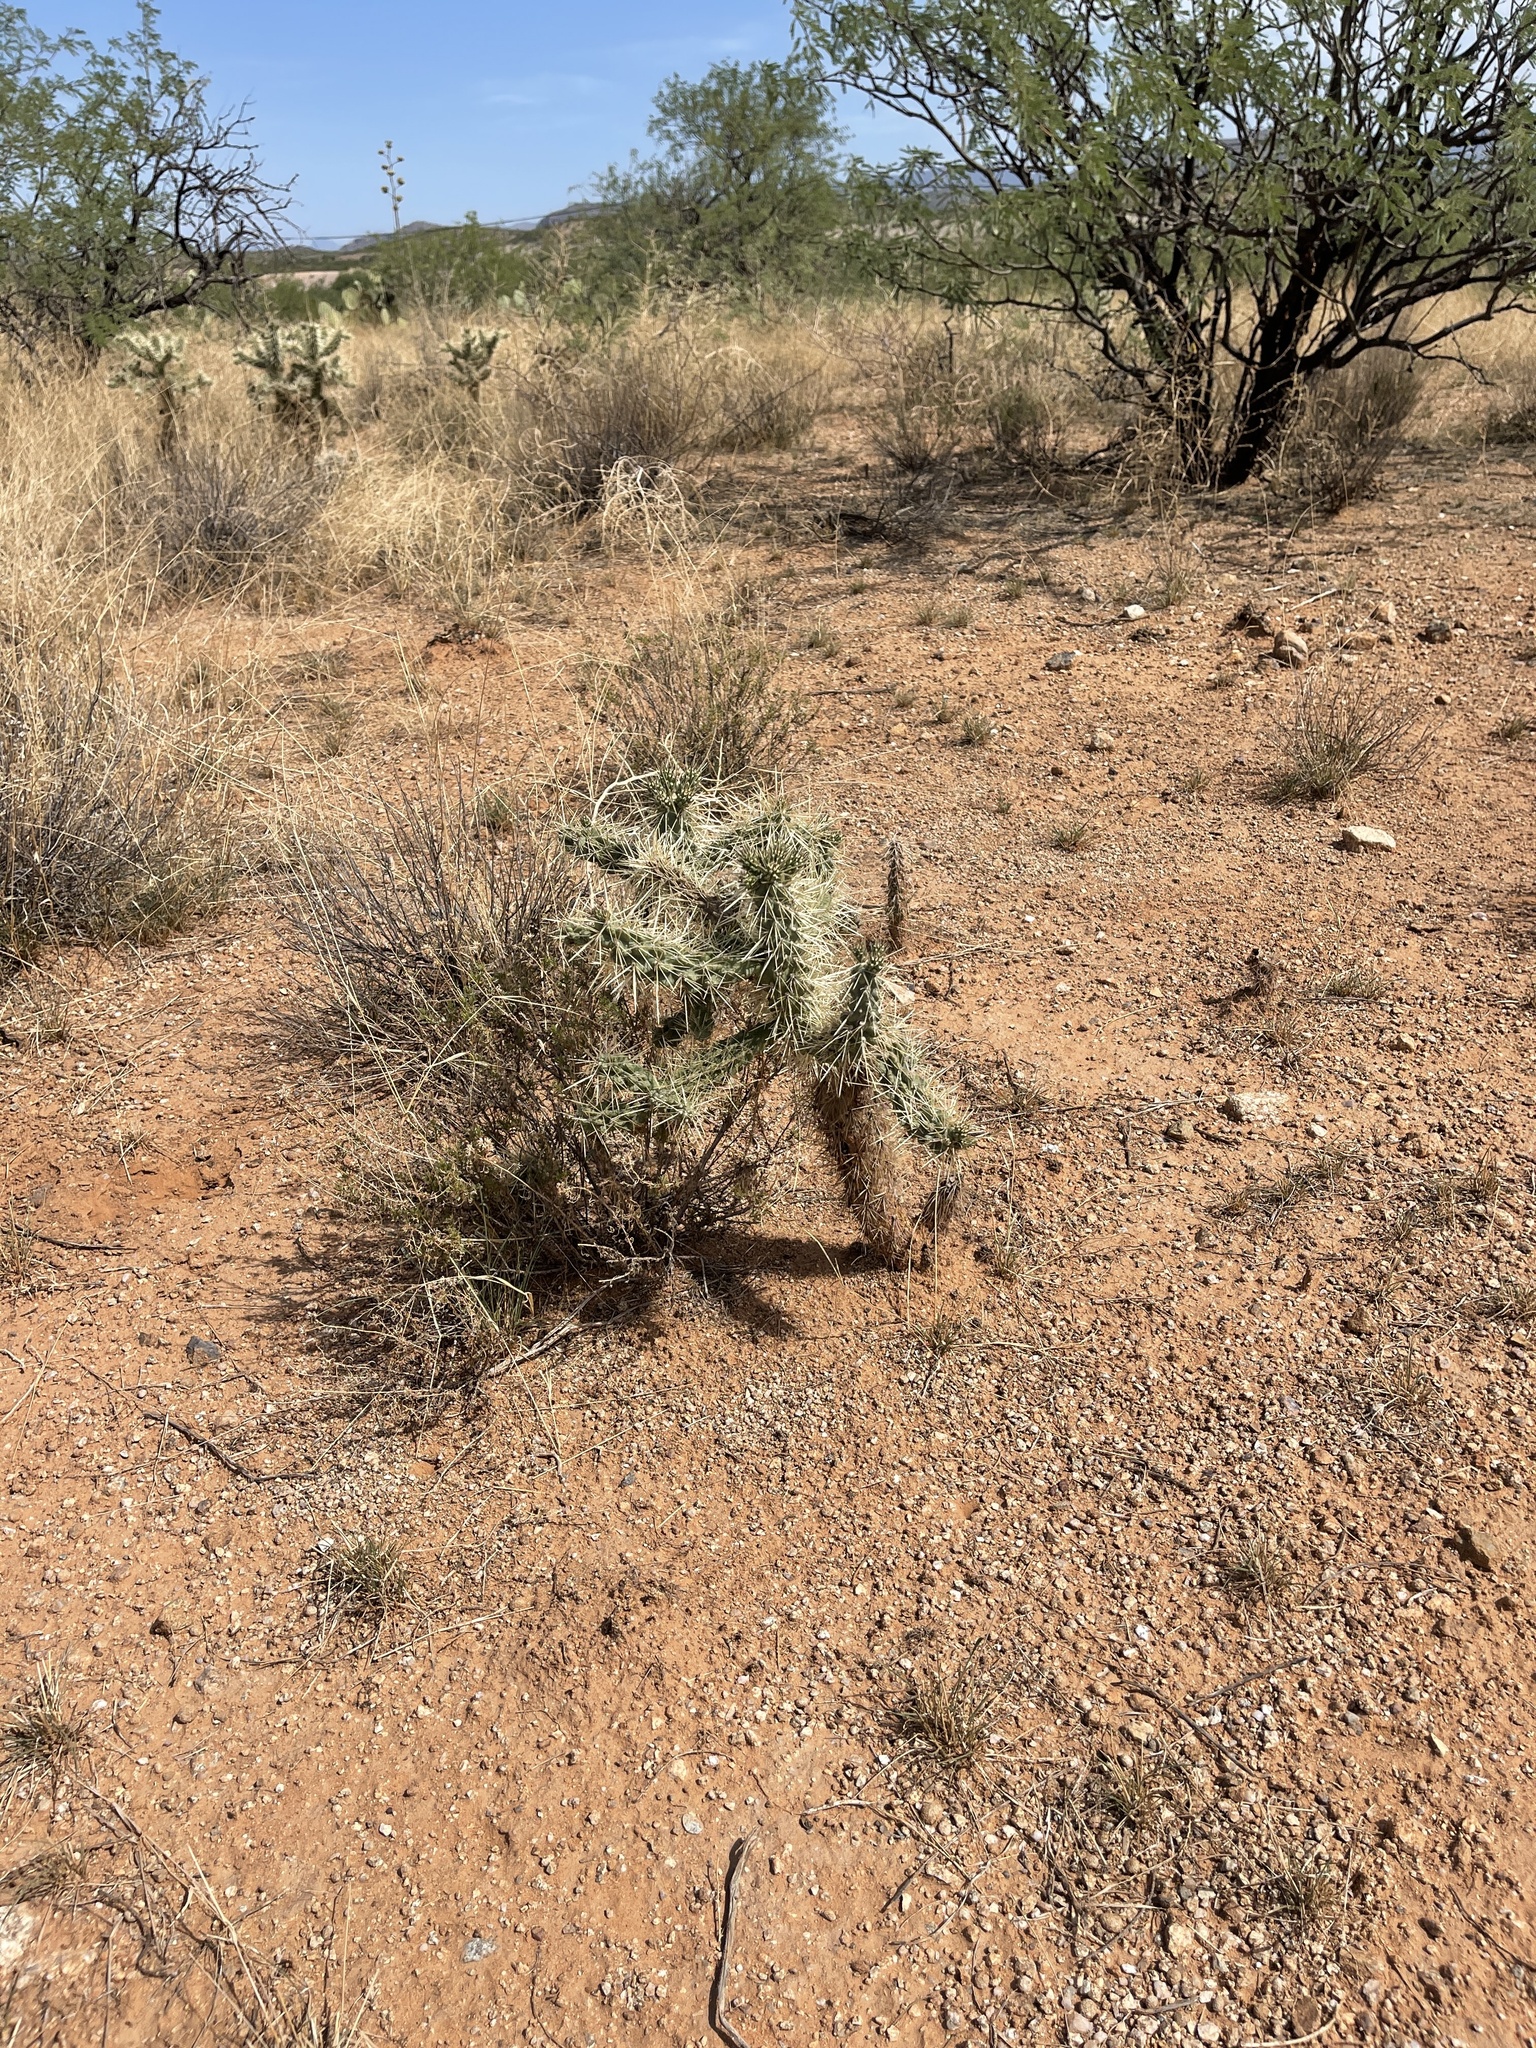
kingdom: Plantae
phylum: Tracheophyta
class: Magnoliopsida
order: Caryophyllales
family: Cactaceae
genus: Cylindropuntia
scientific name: Cylindropuntia fulgida
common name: Jumping cholla
